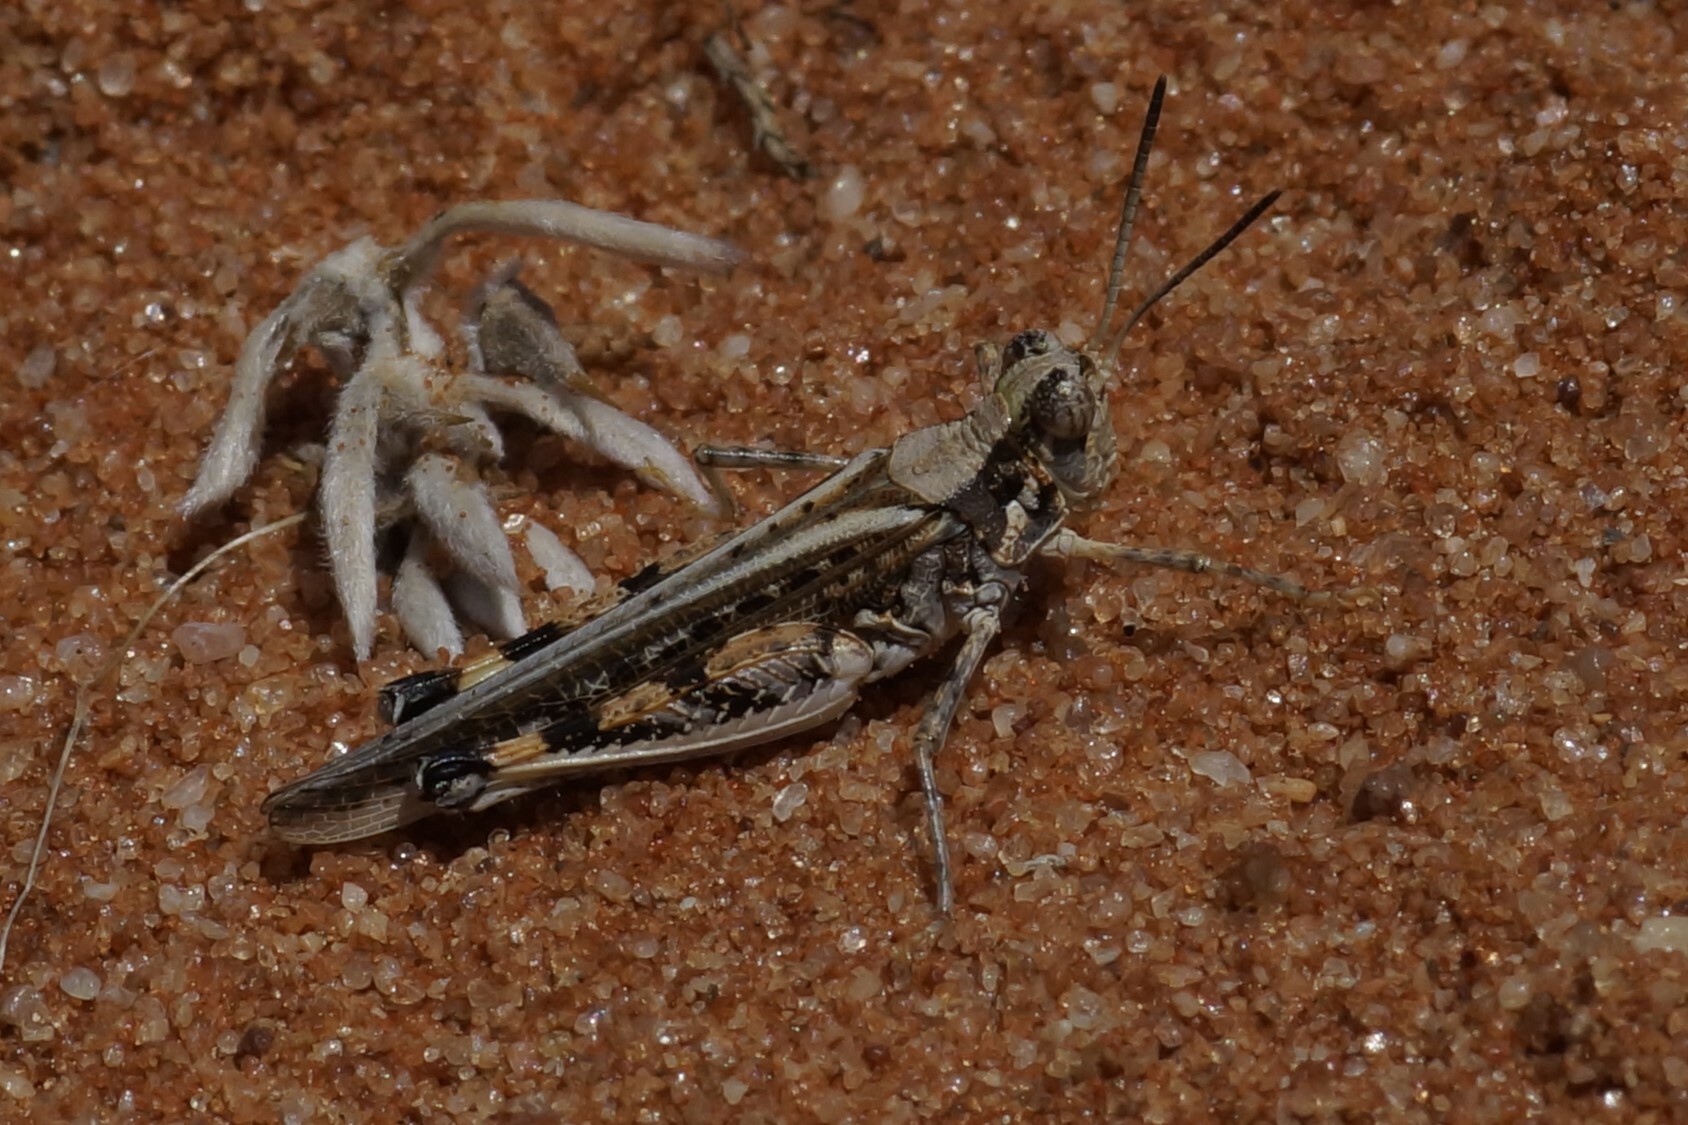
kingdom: Animalia
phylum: Arthropoda
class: Insecta
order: Orthoptera
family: Acrididae
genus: Urnisa
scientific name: Urnisa guttulosa
